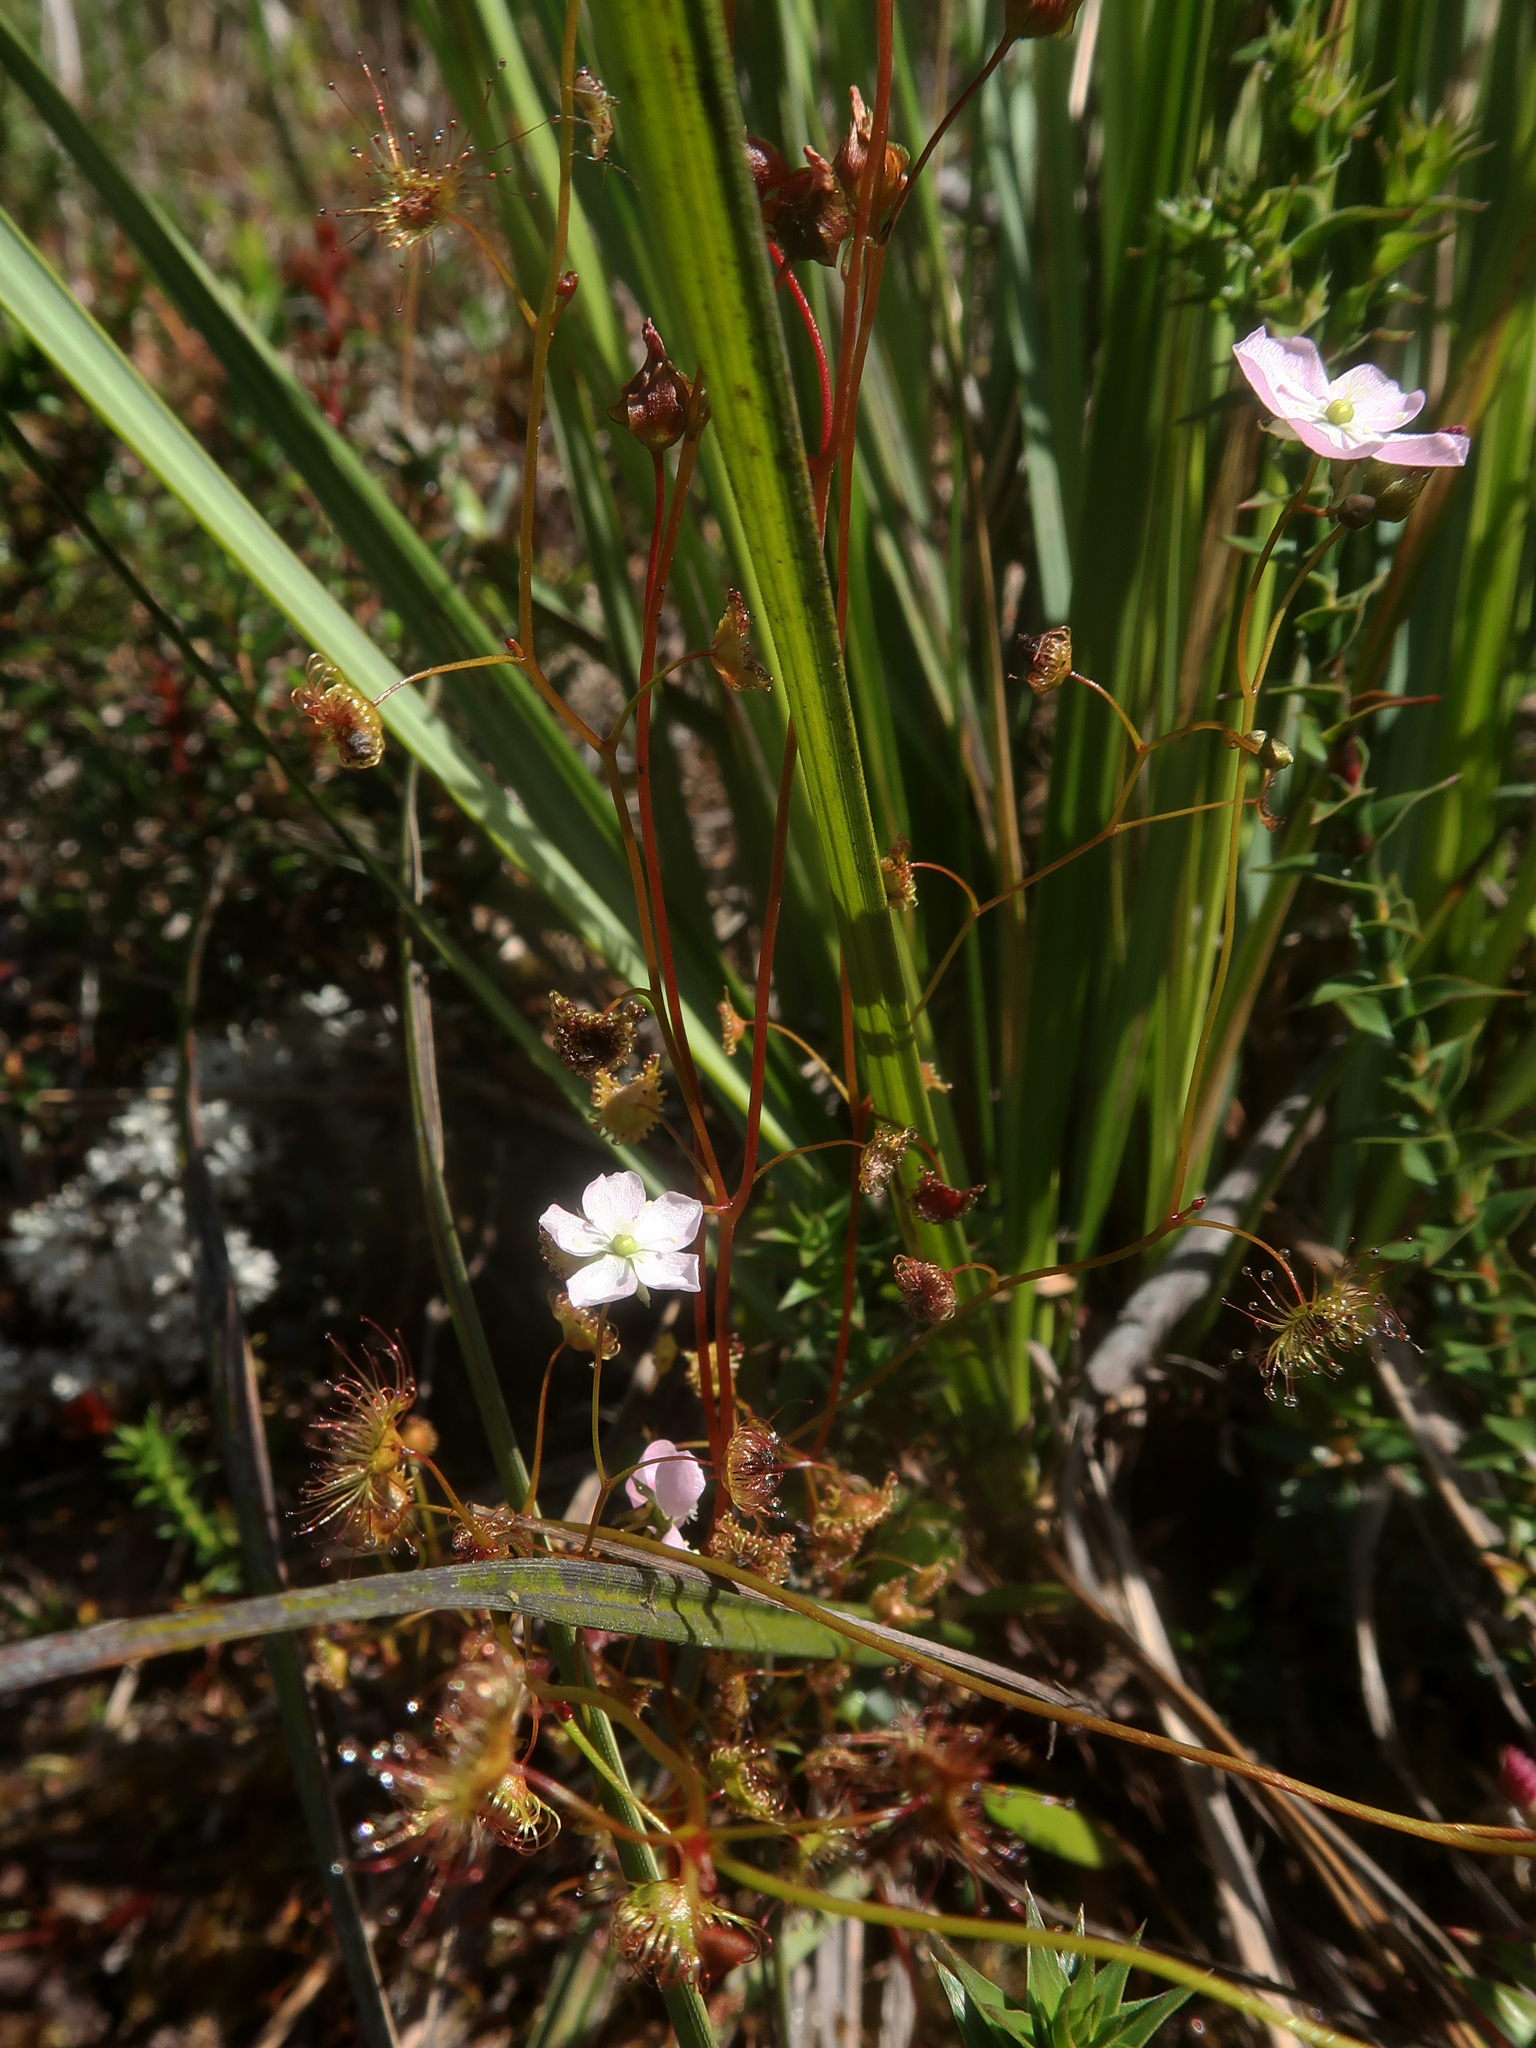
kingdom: Plantae
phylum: Tracheophyta
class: Magnoliopsida
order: Caryophyllales
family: Droseraceae
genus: Drosera
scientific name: Drosera peltata
